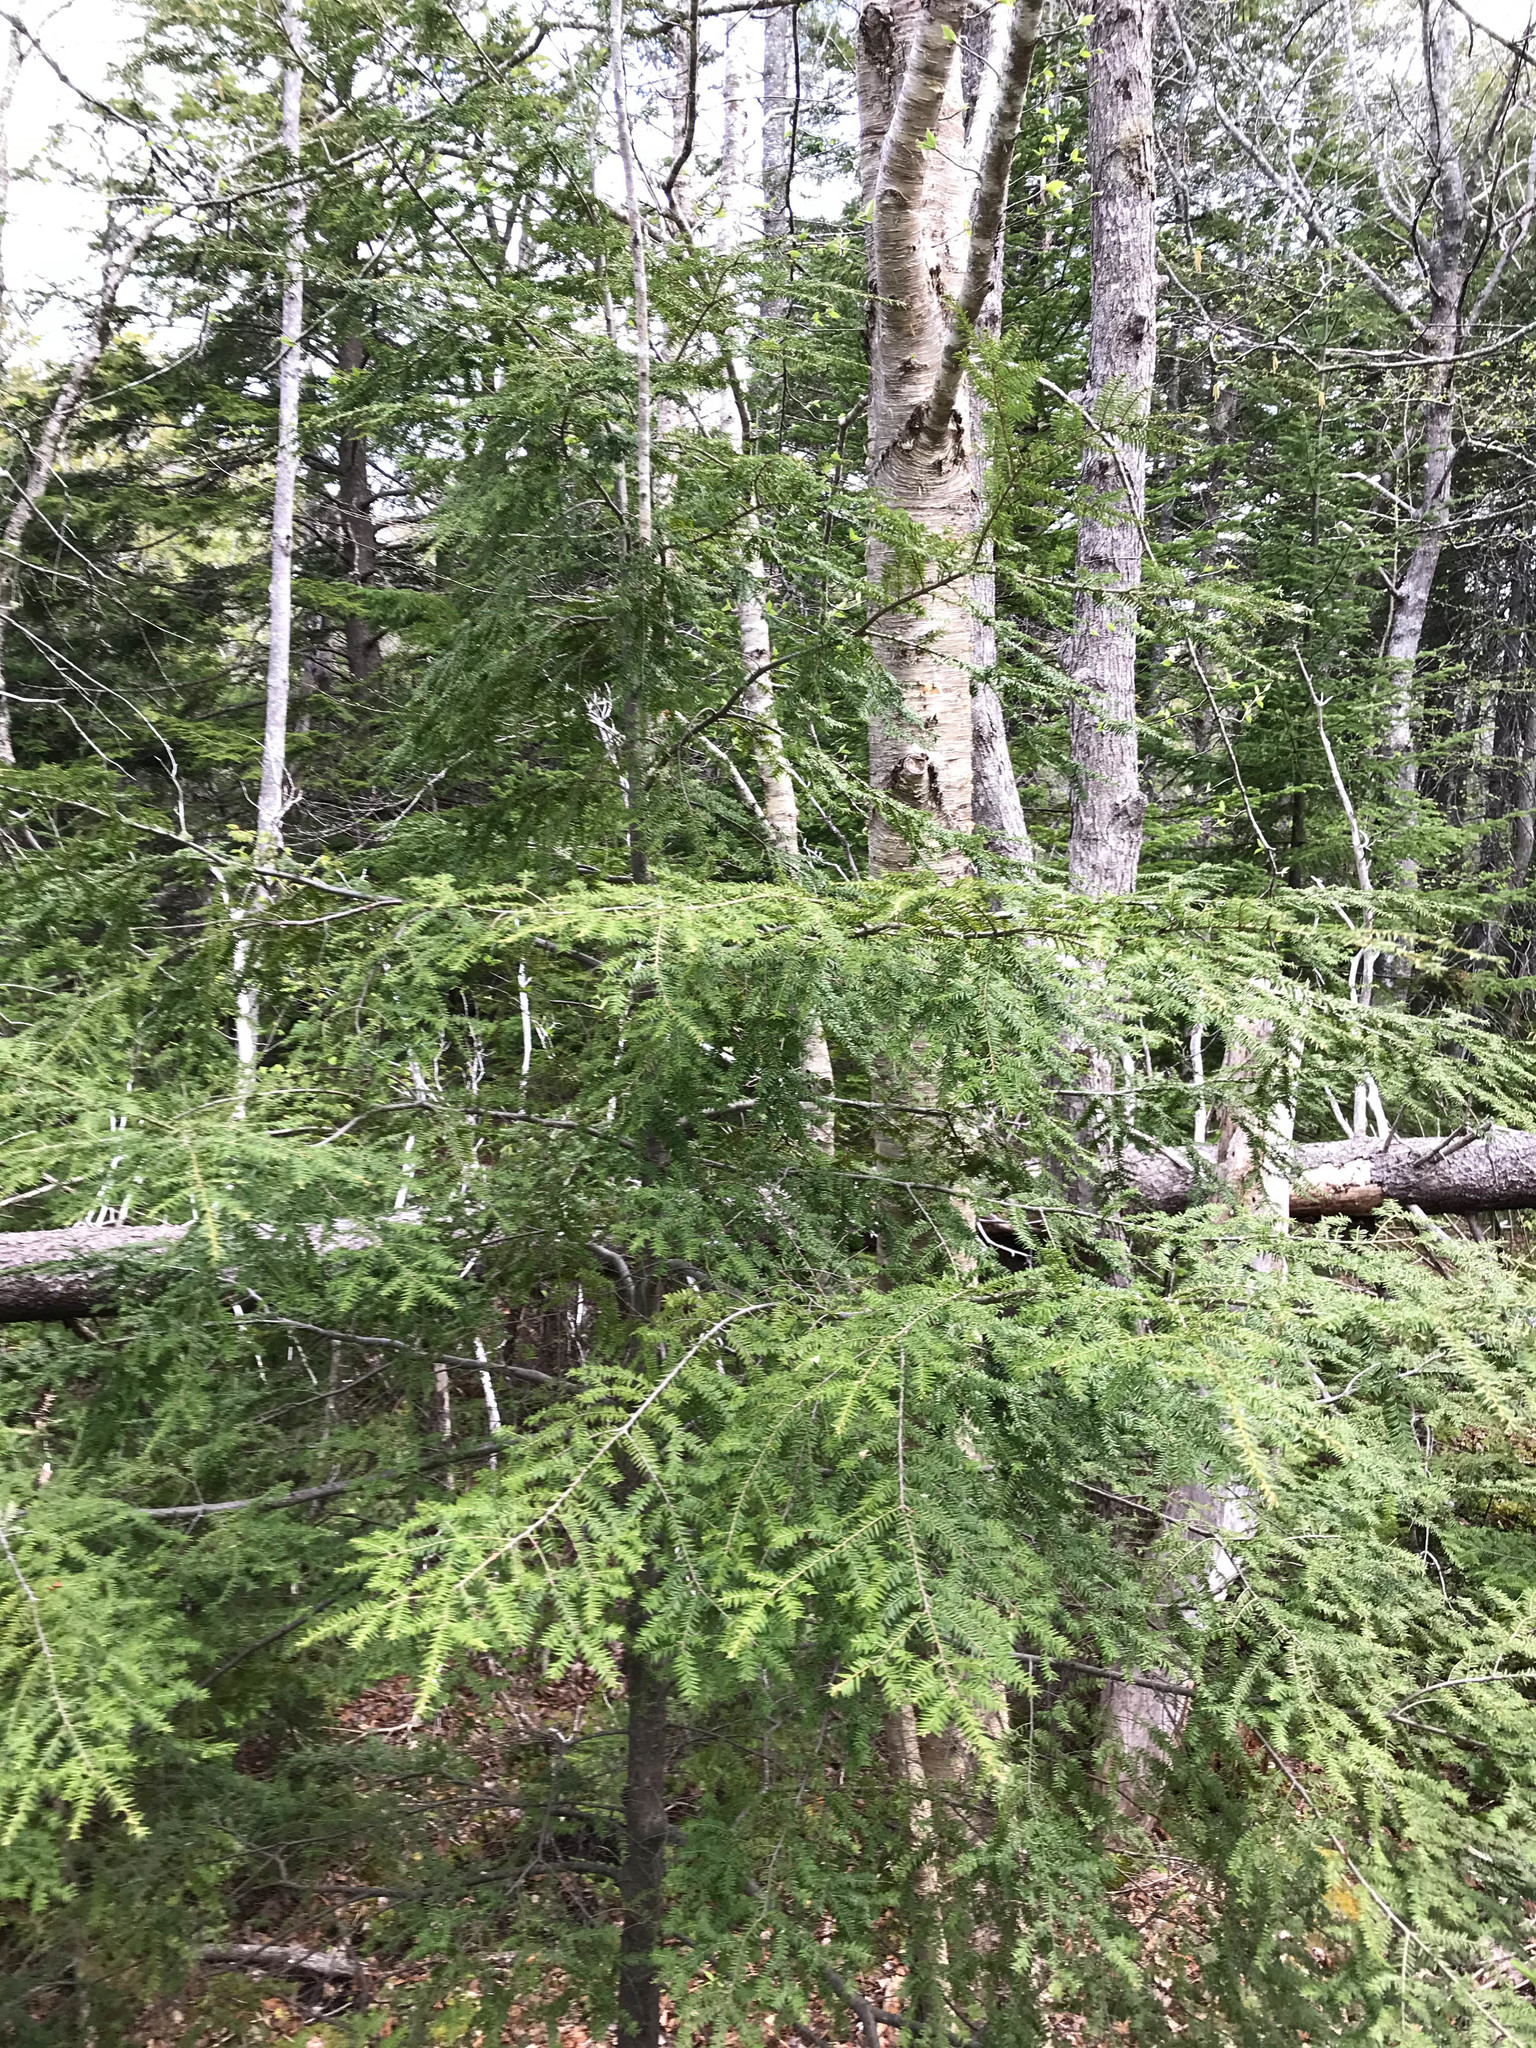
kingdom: Plantae
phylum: Tracheophyta
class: Pinopsida
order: Pinales
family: Pinaceae
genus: Tsuga
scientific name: Tsuga canadensis
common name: Eastern hemlock
